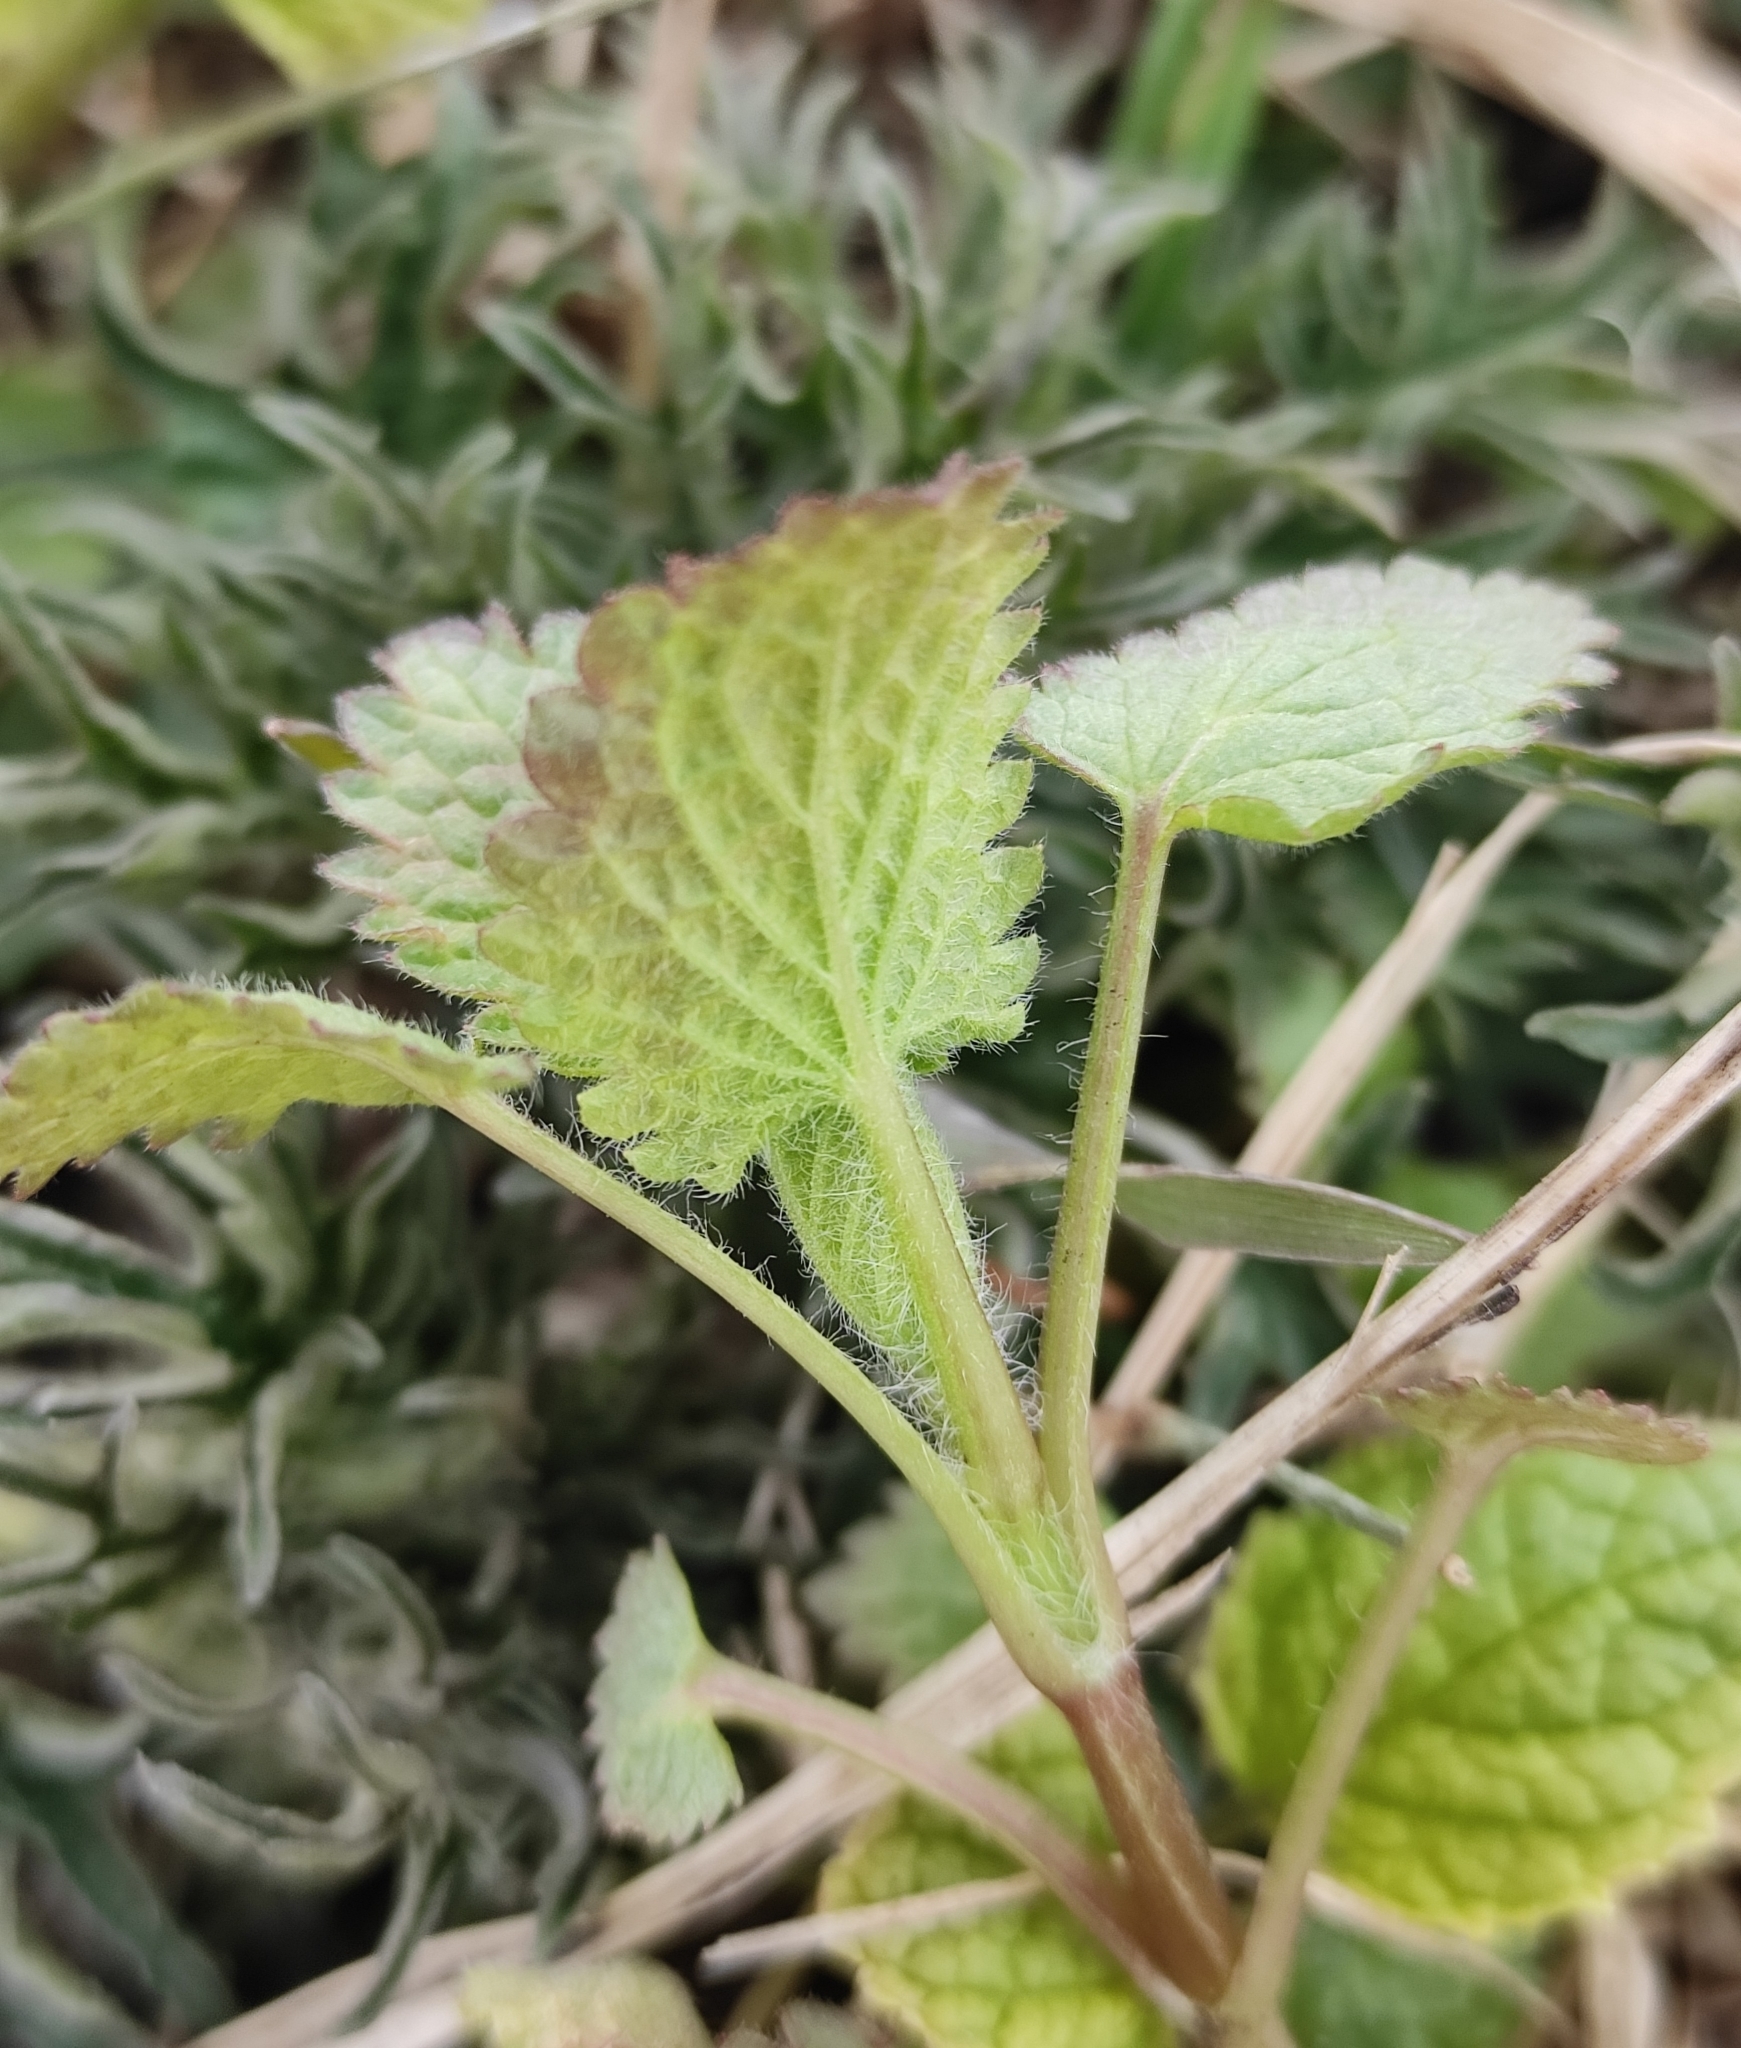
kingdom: Plantae
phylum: Tracheophyta
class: Magnoliopsida
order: Lamiales
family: Lamiaceae
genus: Lamium
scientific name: Lamium album
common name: White dead-nettle
